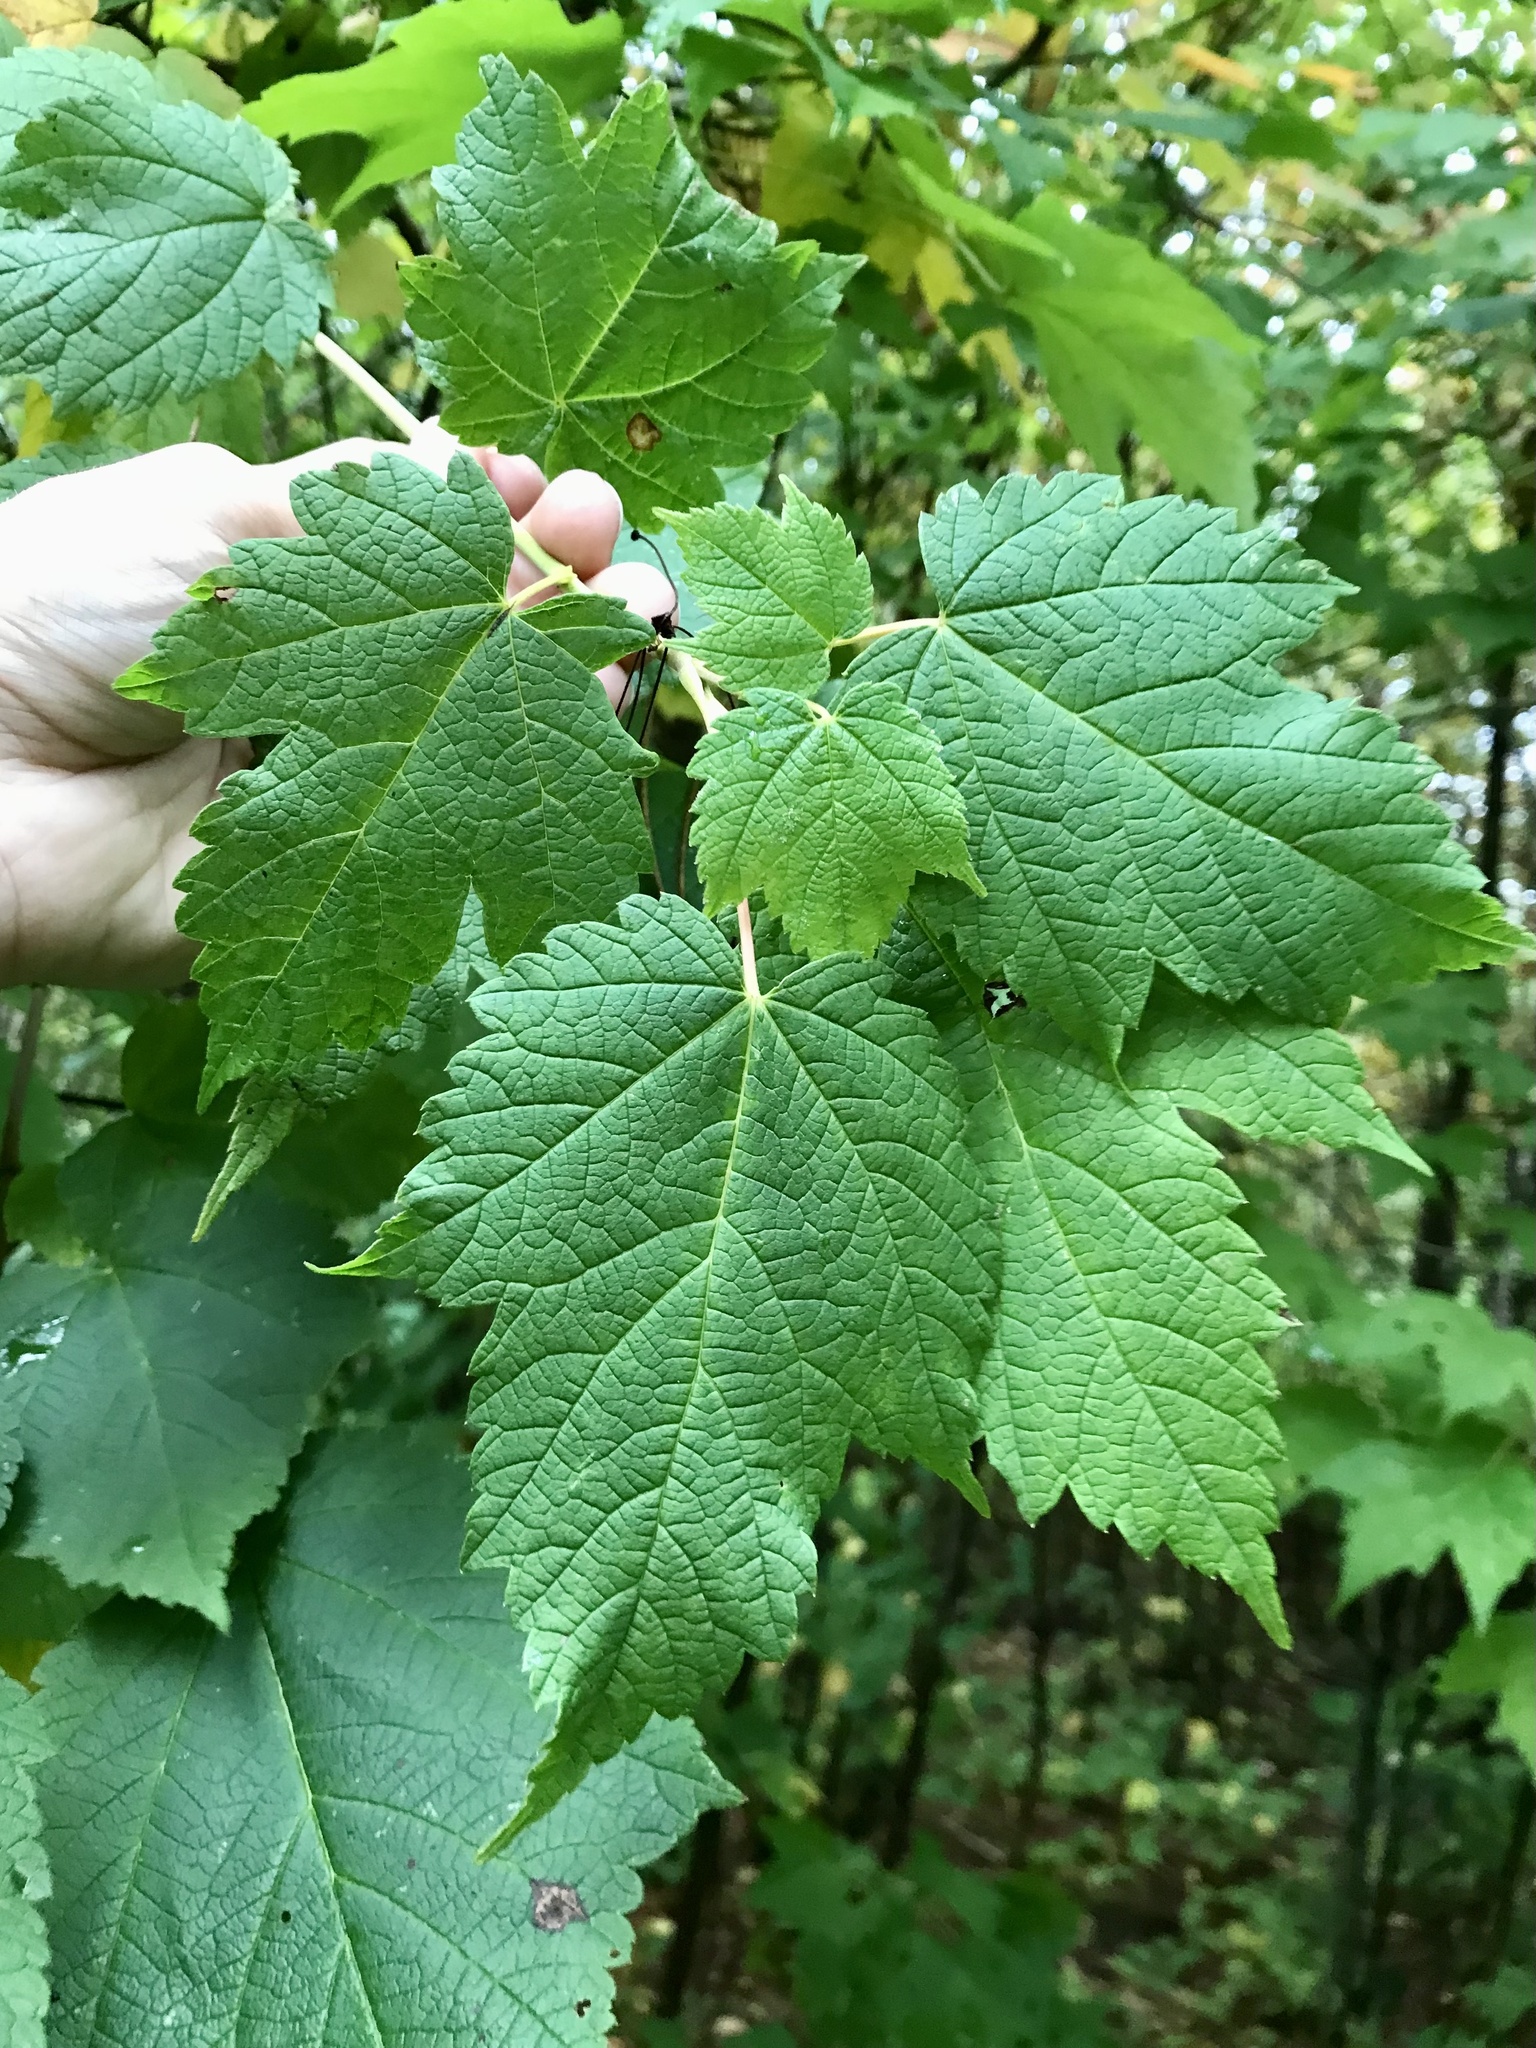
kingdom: Plantae
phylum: Tracheophyta
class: Magnoliopsida
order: Sapindales
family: Sapindaceae
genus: Acer
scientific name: Acer spicatum
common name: Mountain maple
